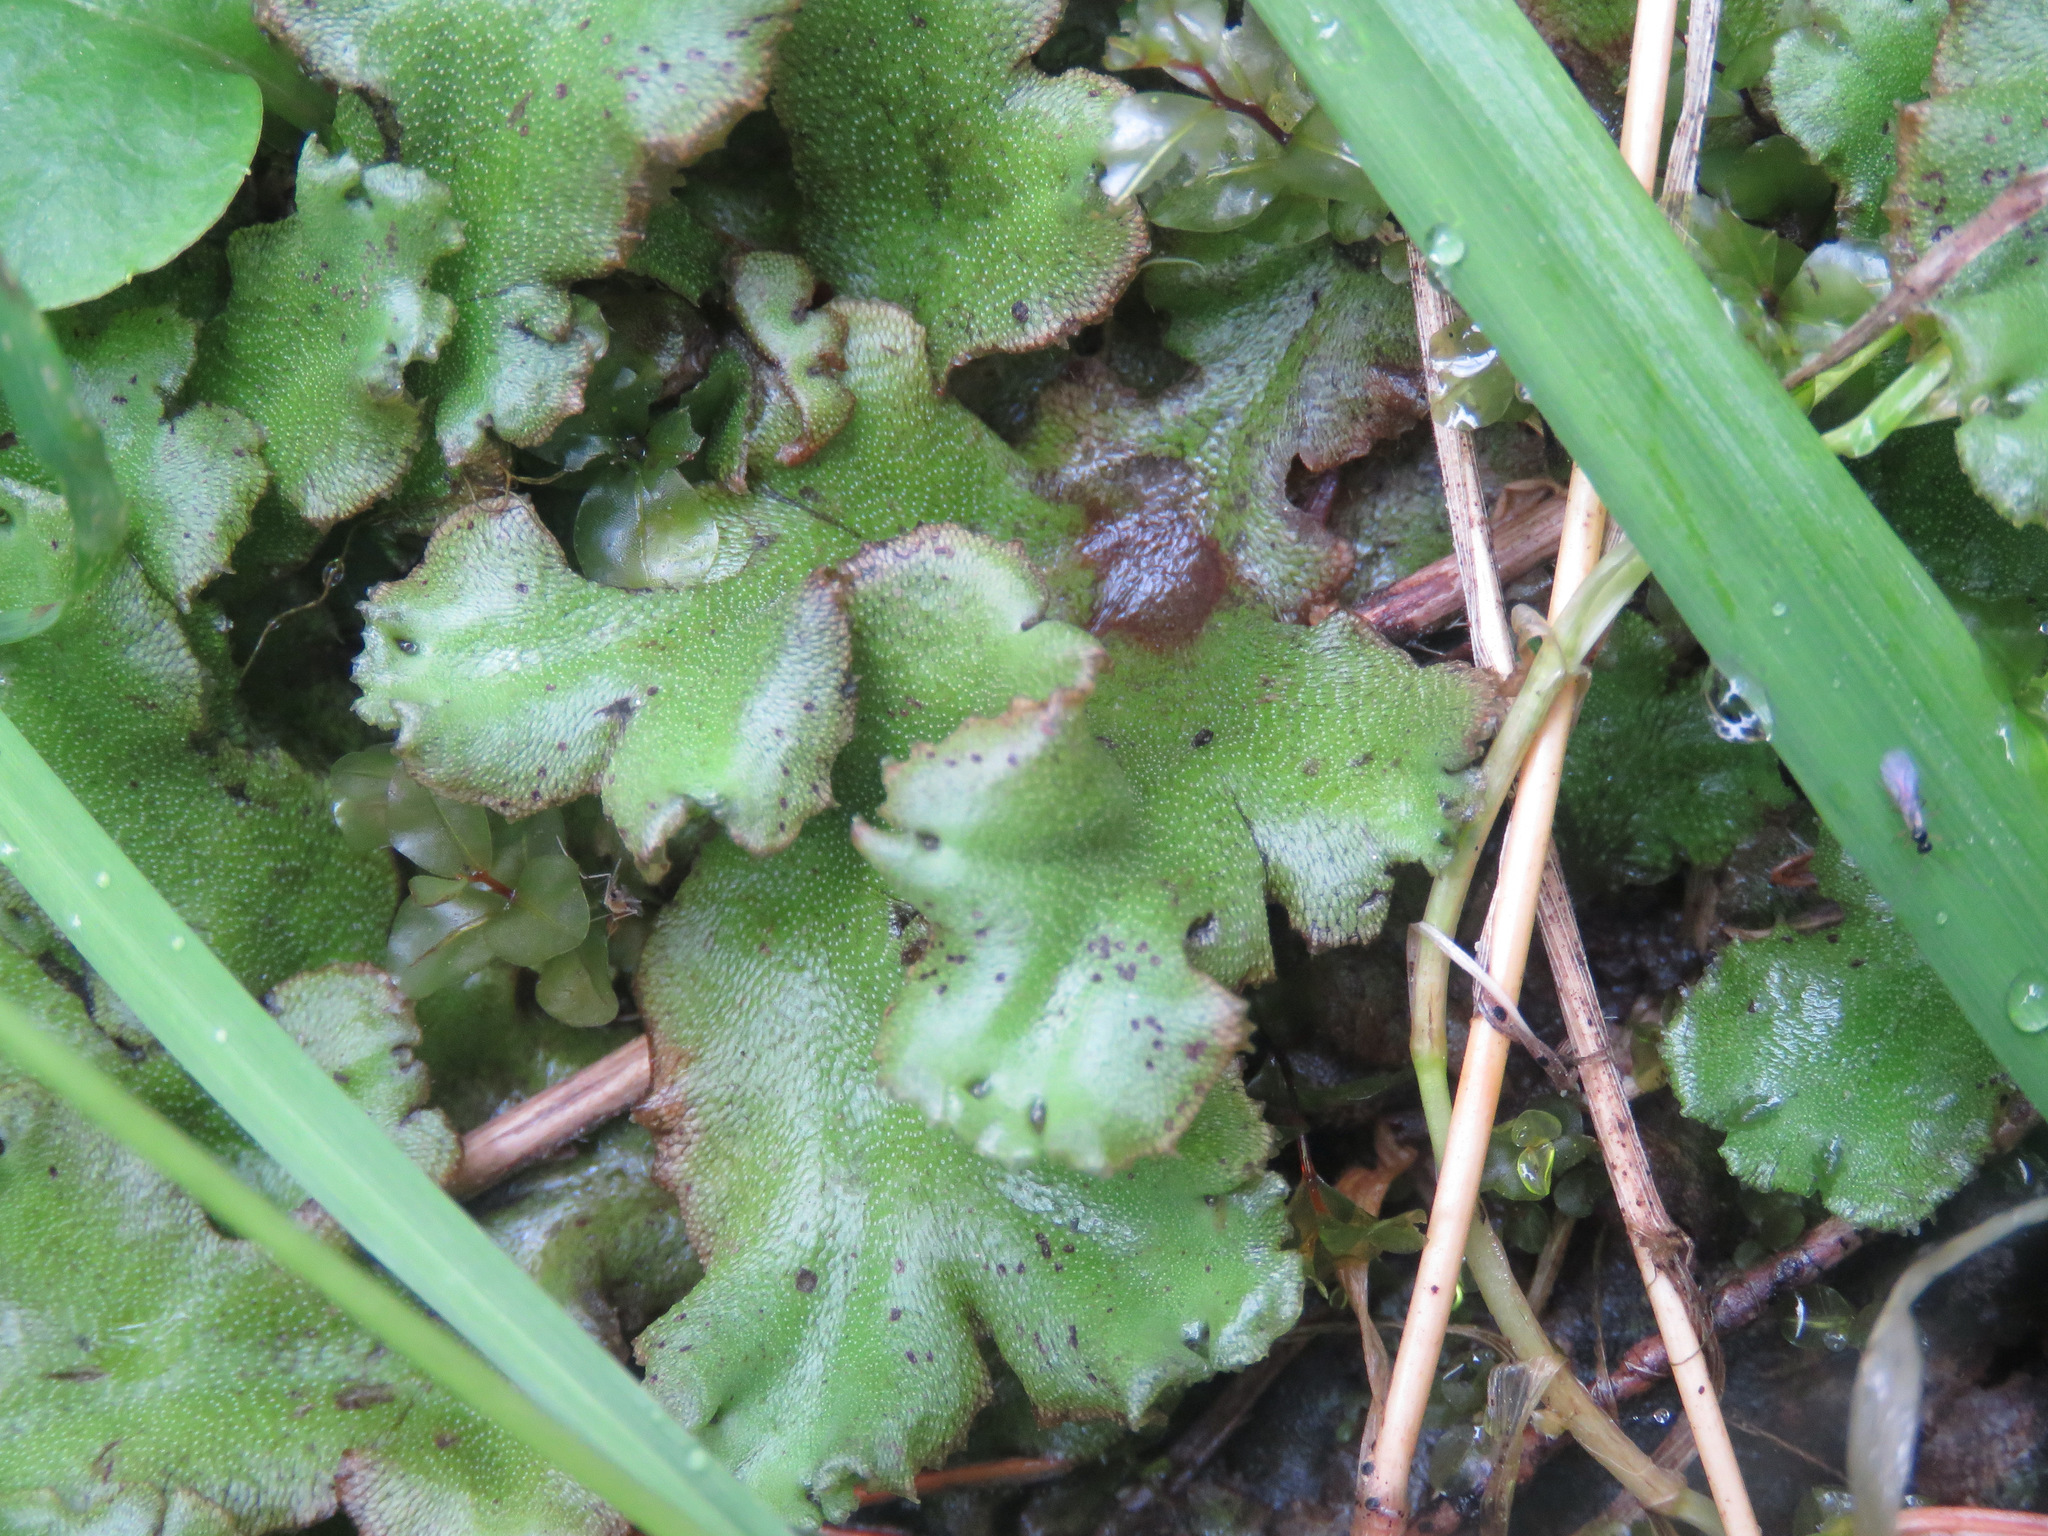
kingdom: Plantae
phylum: Marchantiophyta
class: Marchantiopsida
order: Marchantiales
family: Marchantiaceae
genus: Marchantia
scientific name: Marchantia polymorpha
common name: Common liverwort
